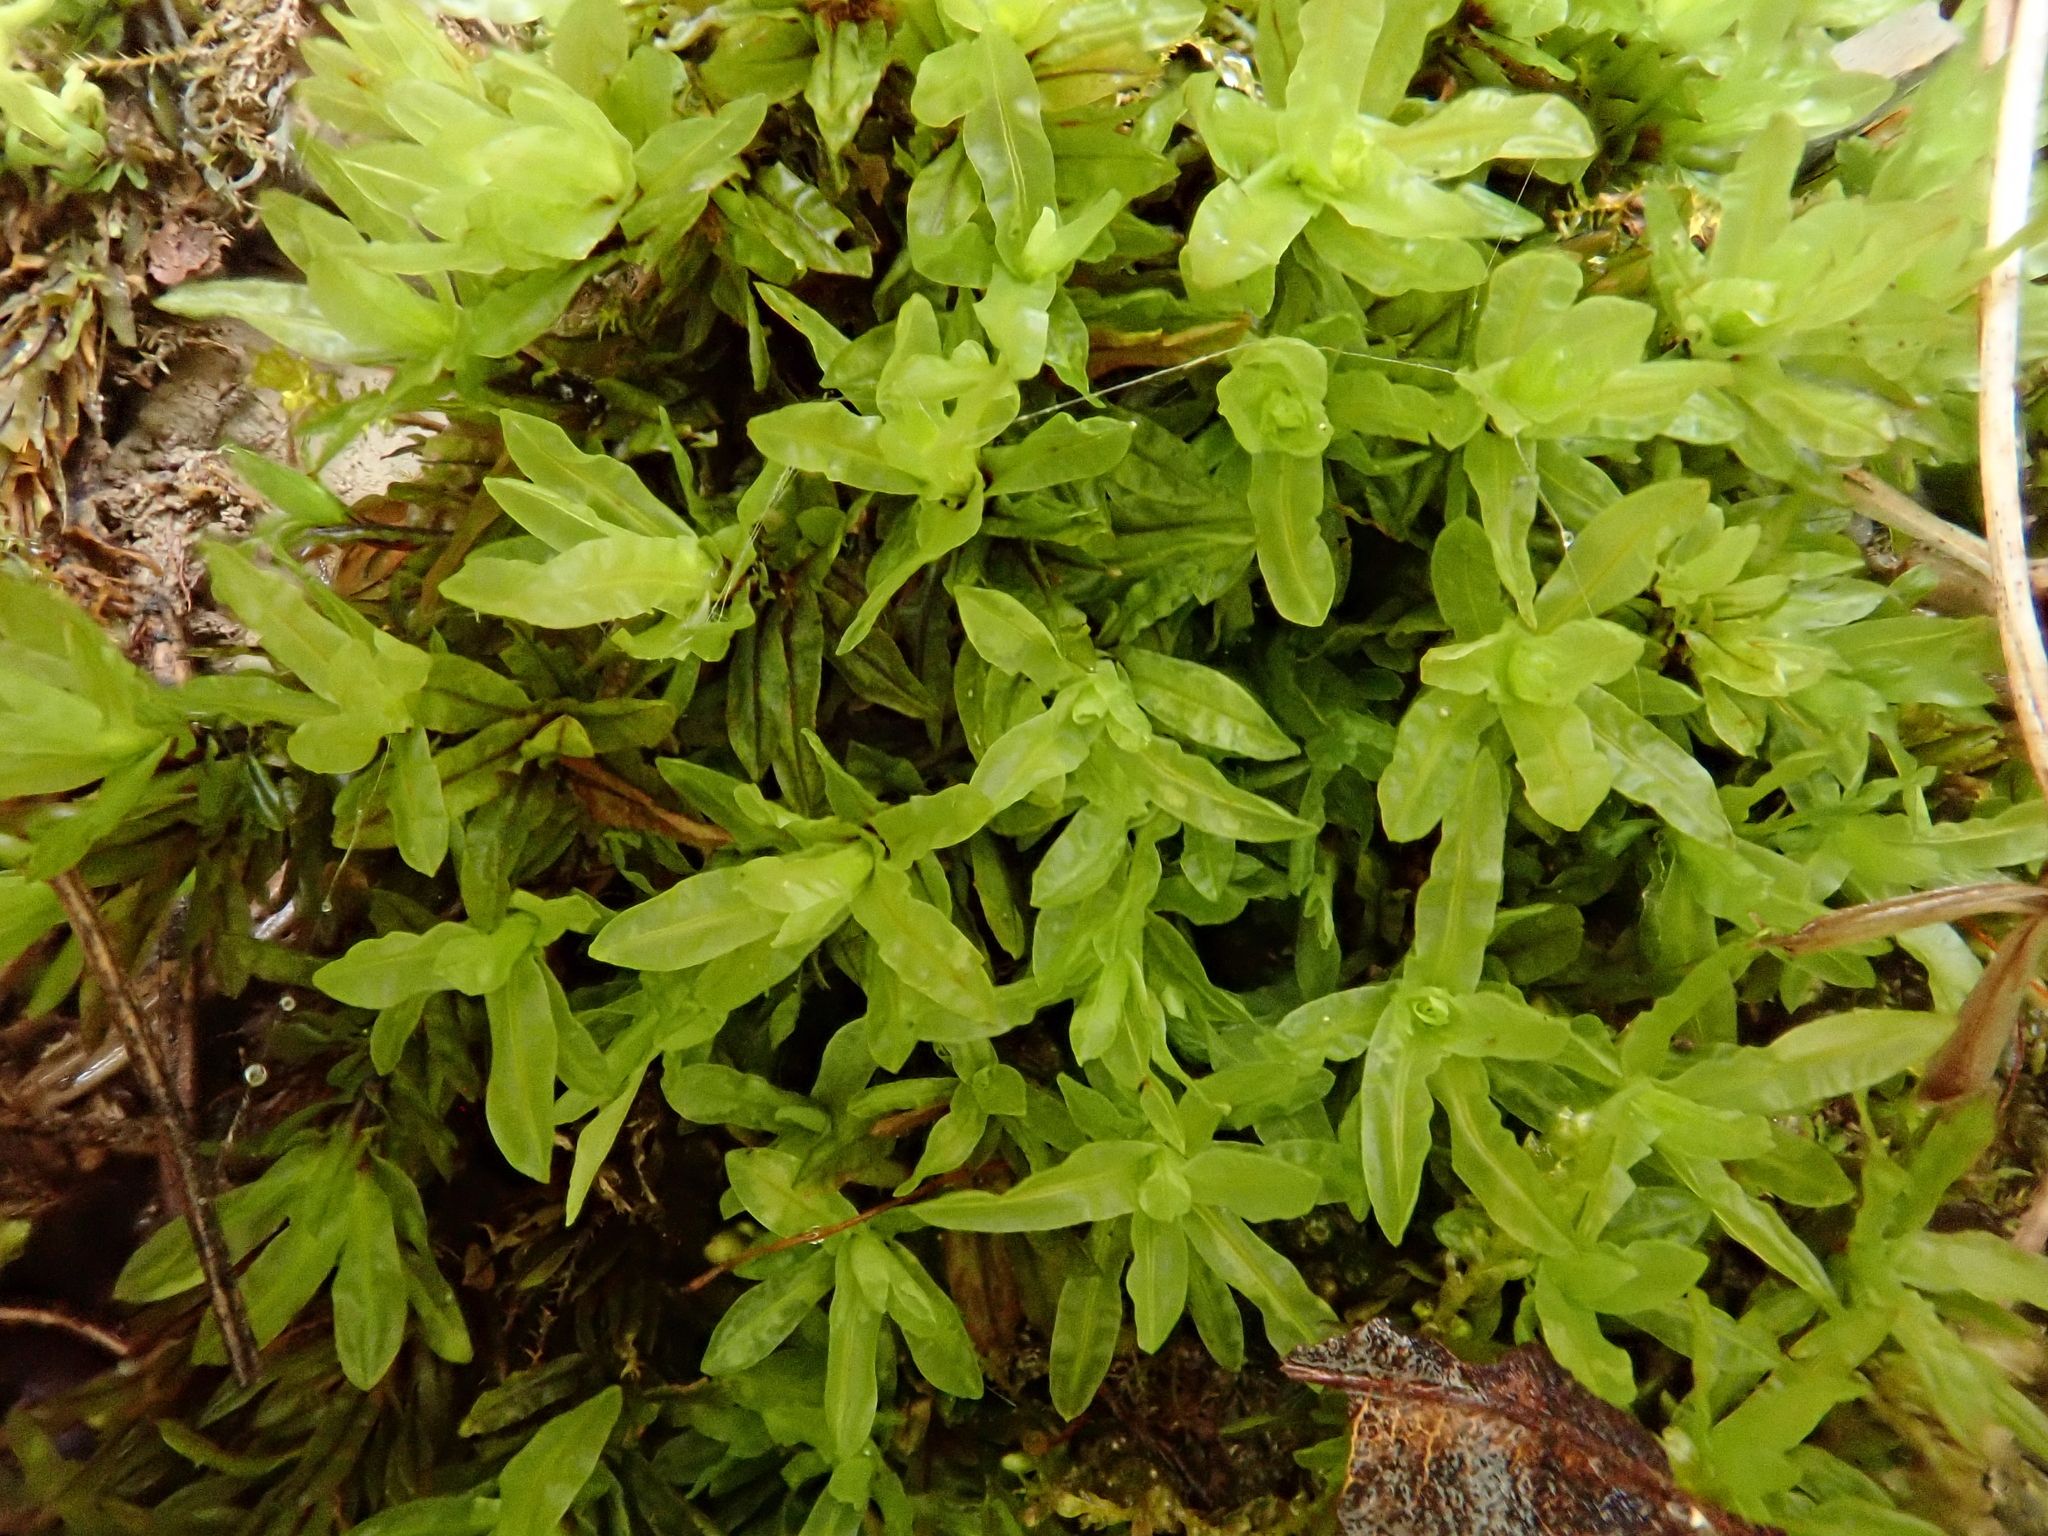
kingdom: Plantae
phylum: Bryophyta
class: Bryopsida
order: Encalyptales
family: Encalyptaceae
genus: Encalypta
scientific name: Encalypta streptocarpa
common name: Spiral extinguisher-moss
